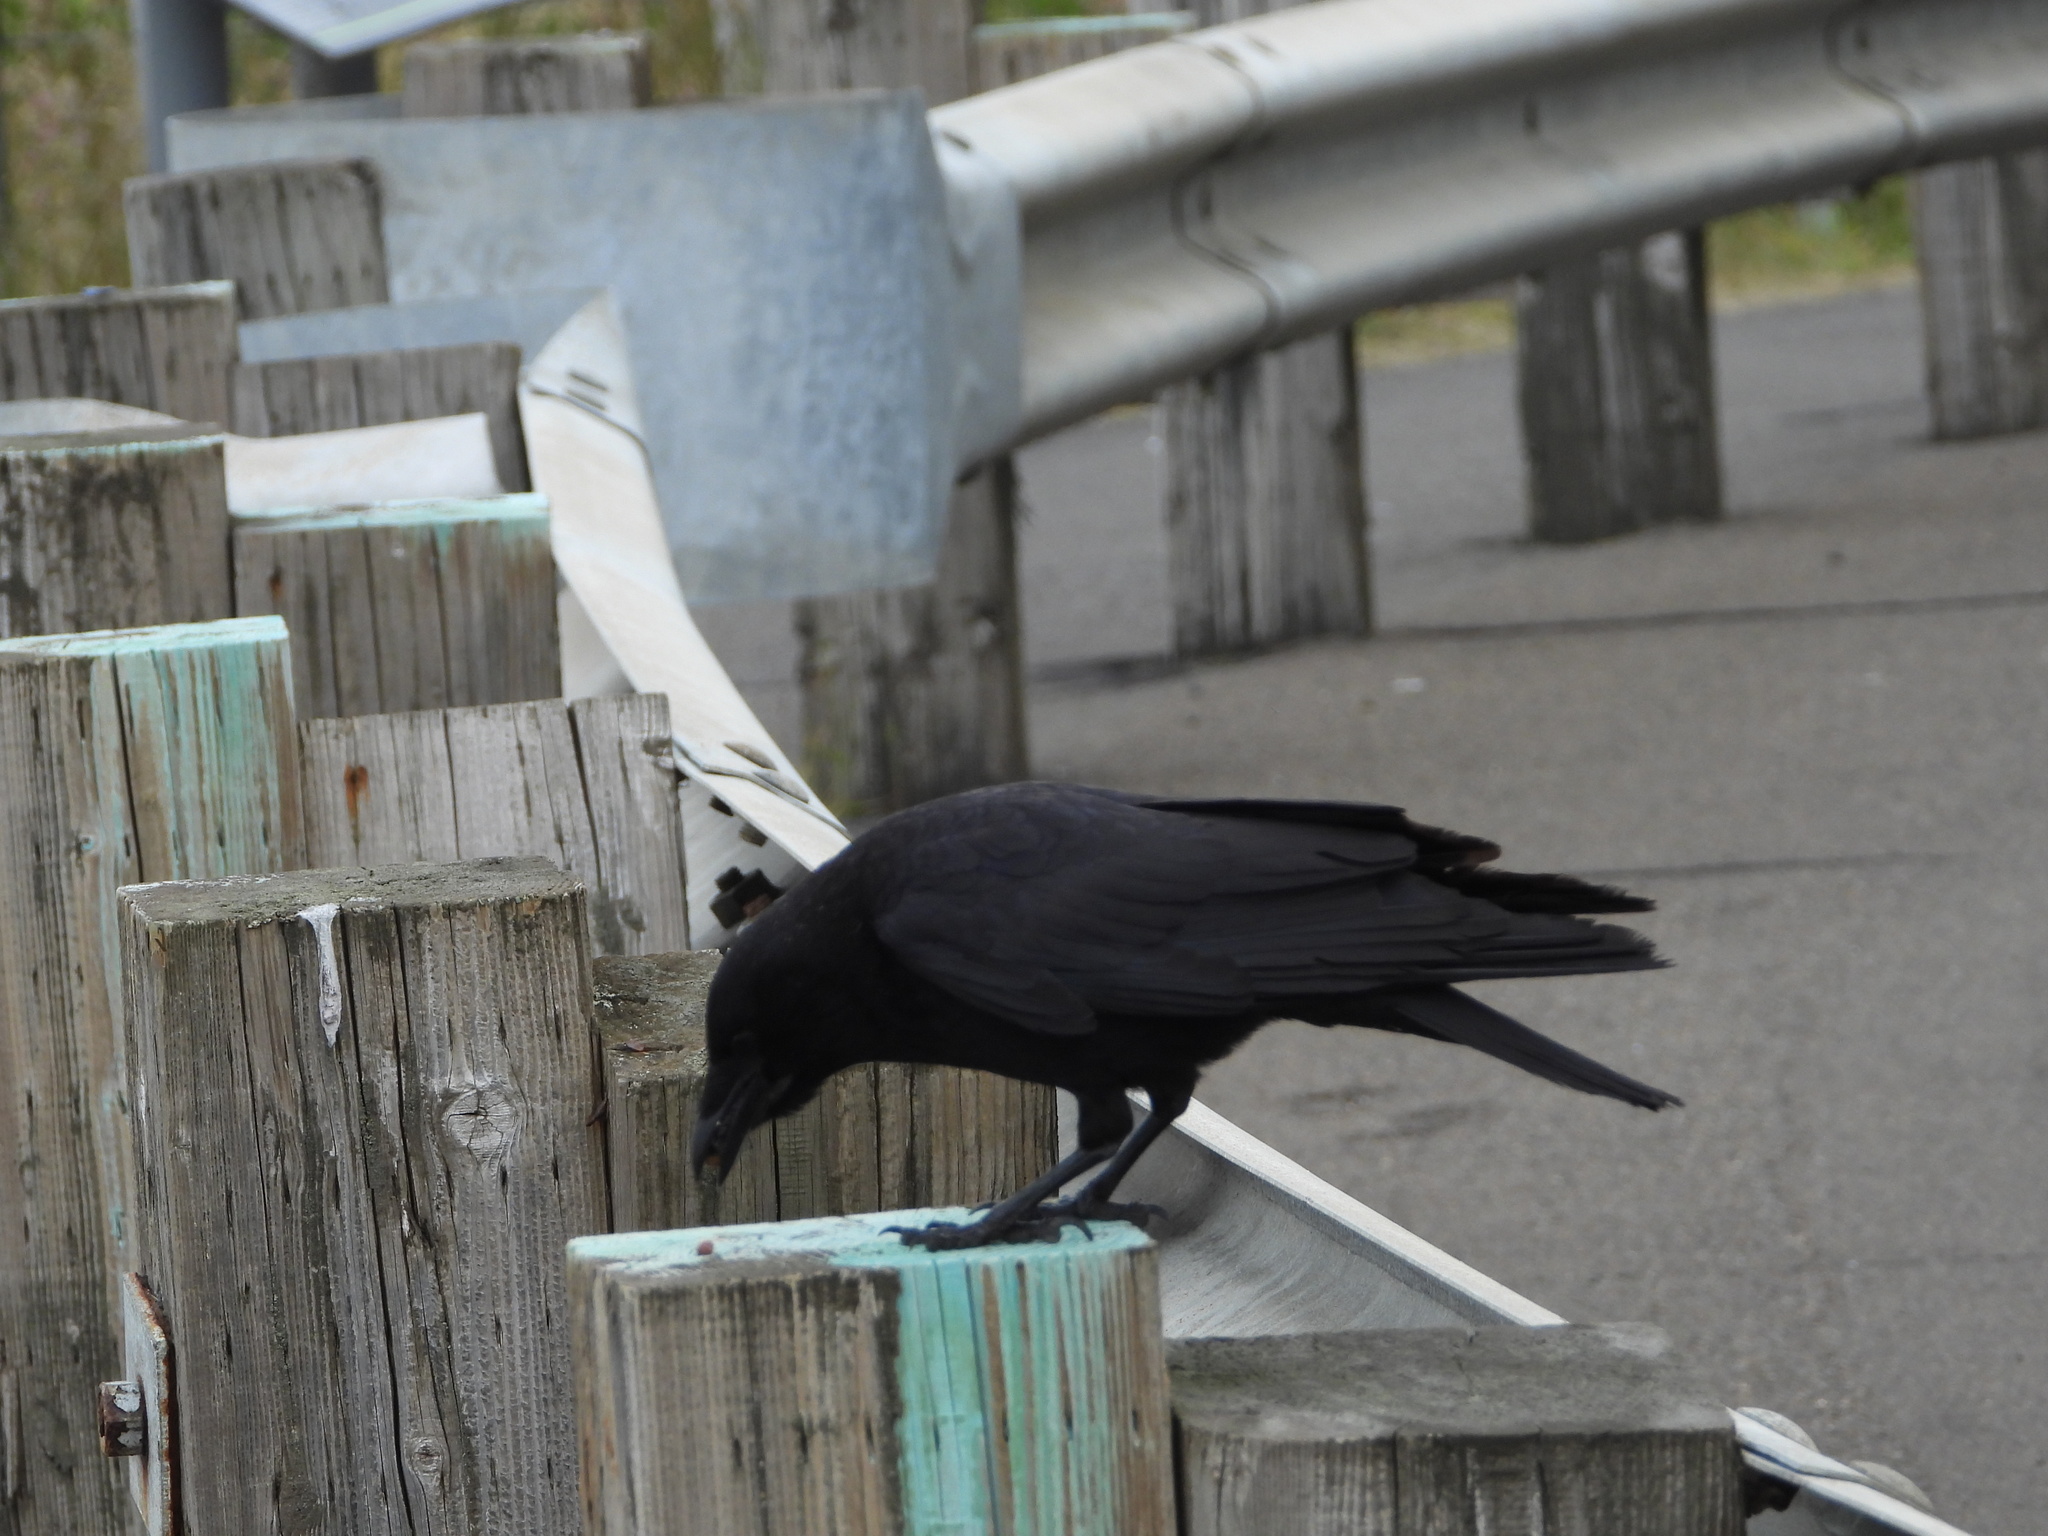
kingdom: Animalia
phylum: Chordata
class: Aves
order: Passeriformes
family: Corvidae
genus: Corvus
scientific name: Corvus brachyrhynchos
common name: American crow
